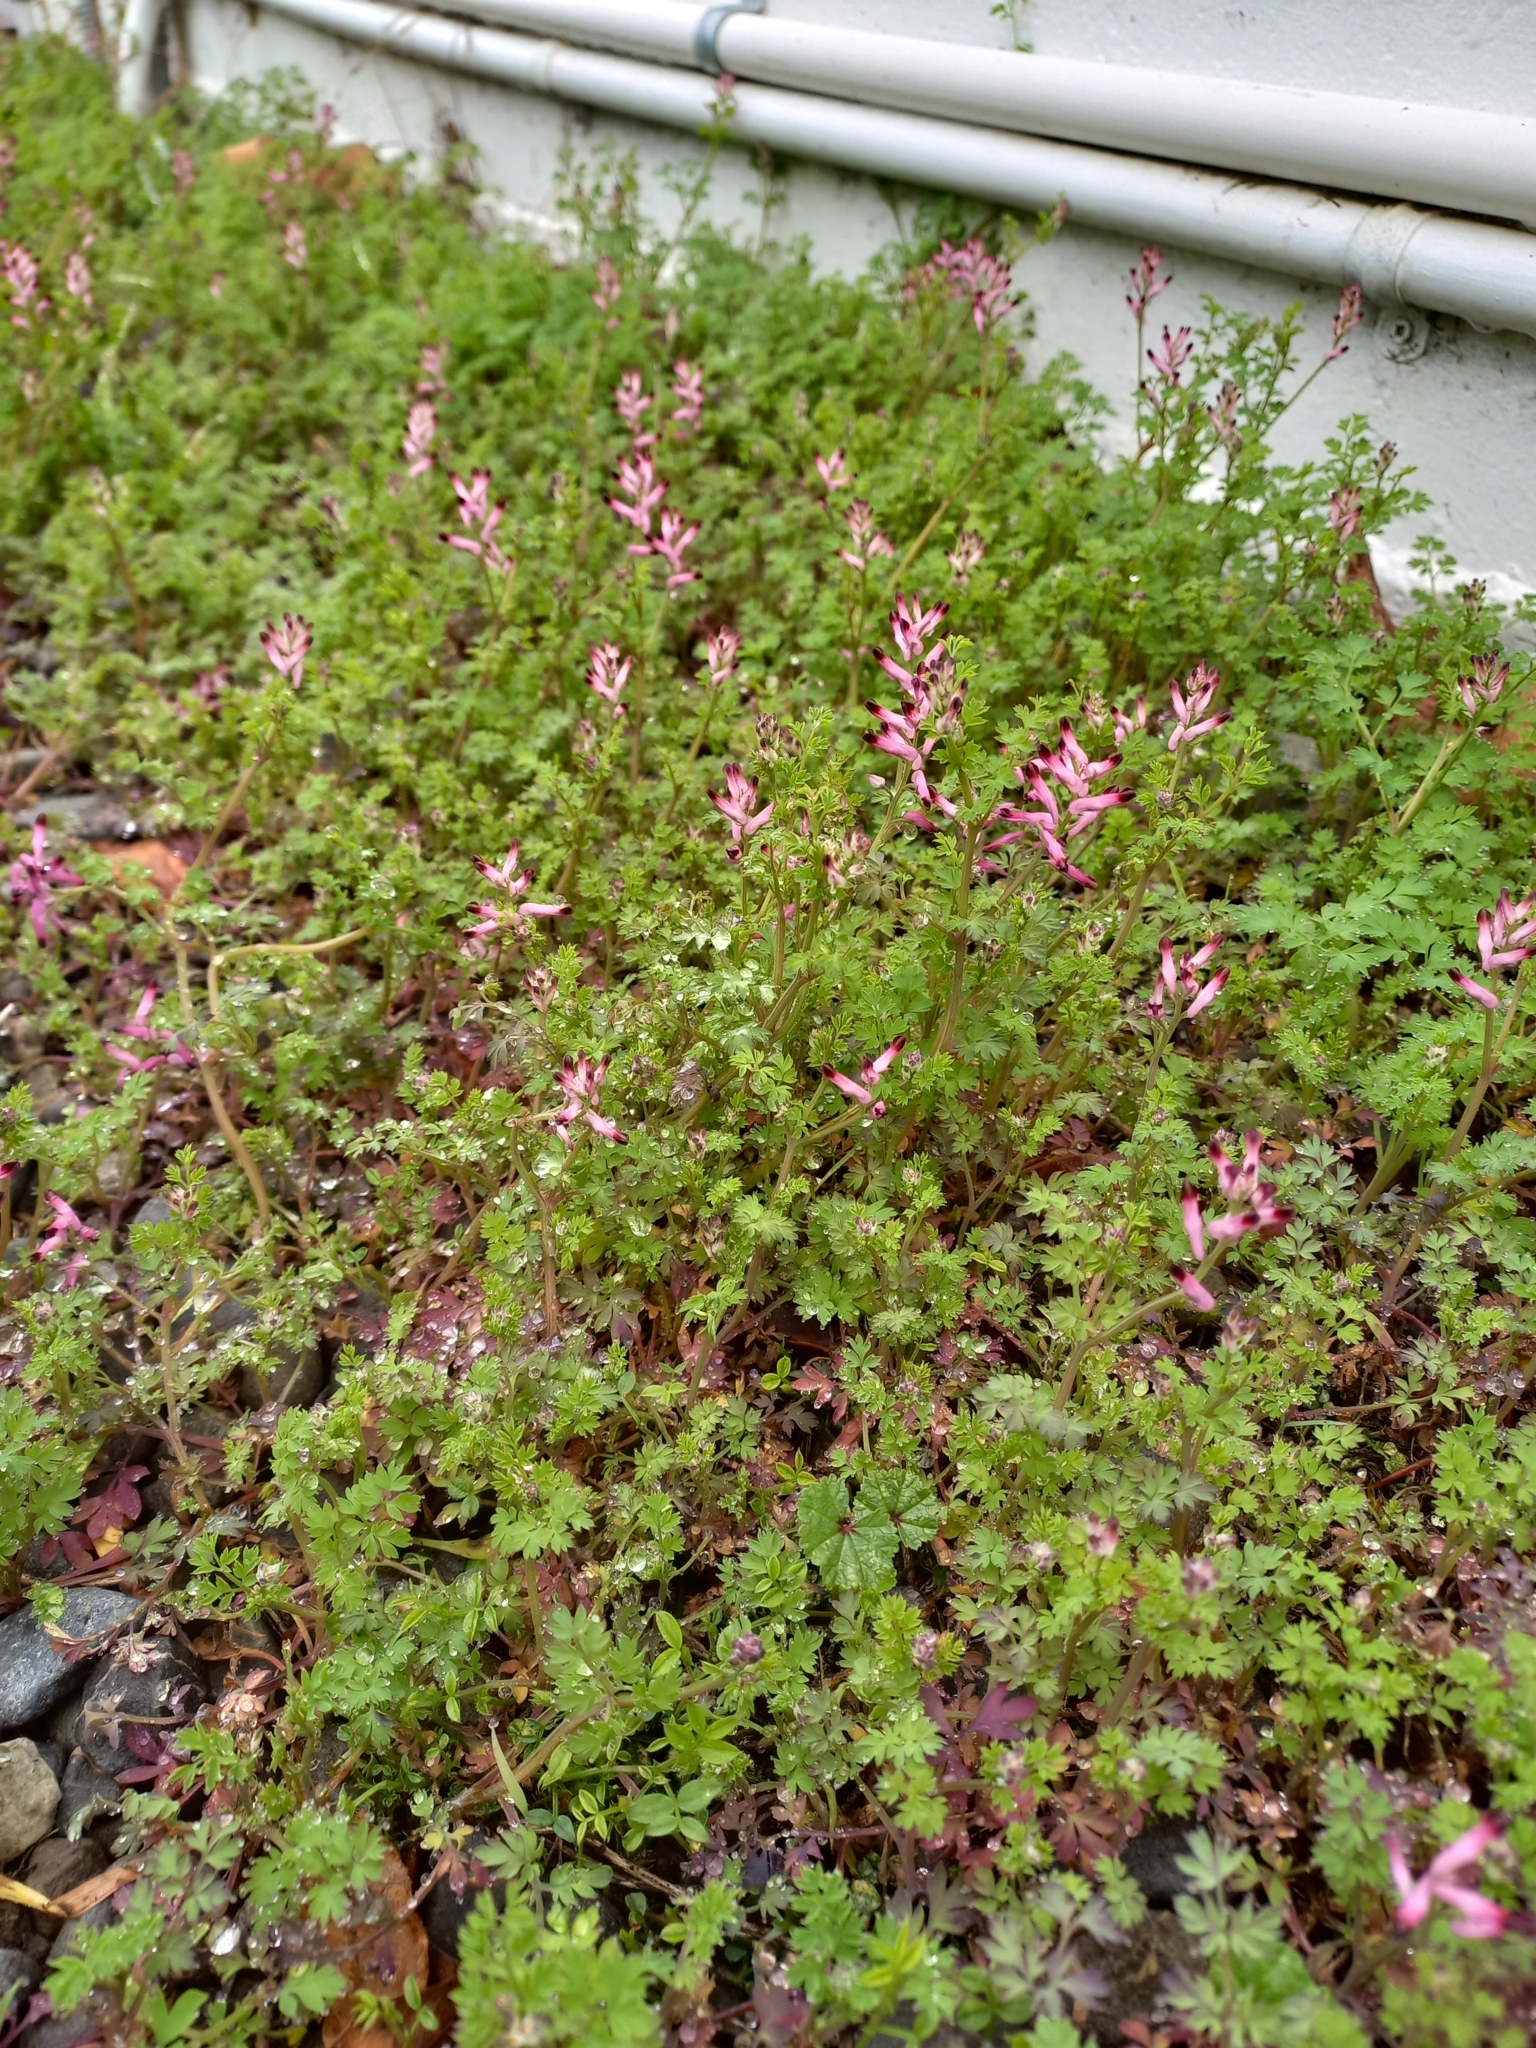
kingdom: Plantae
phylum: Tracheophyta
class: Magnoliopsida
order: Ranunculales
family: Papaveraceae
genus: Fumaria
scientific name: Fumaria muralis
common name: Common ramping-fumitory
